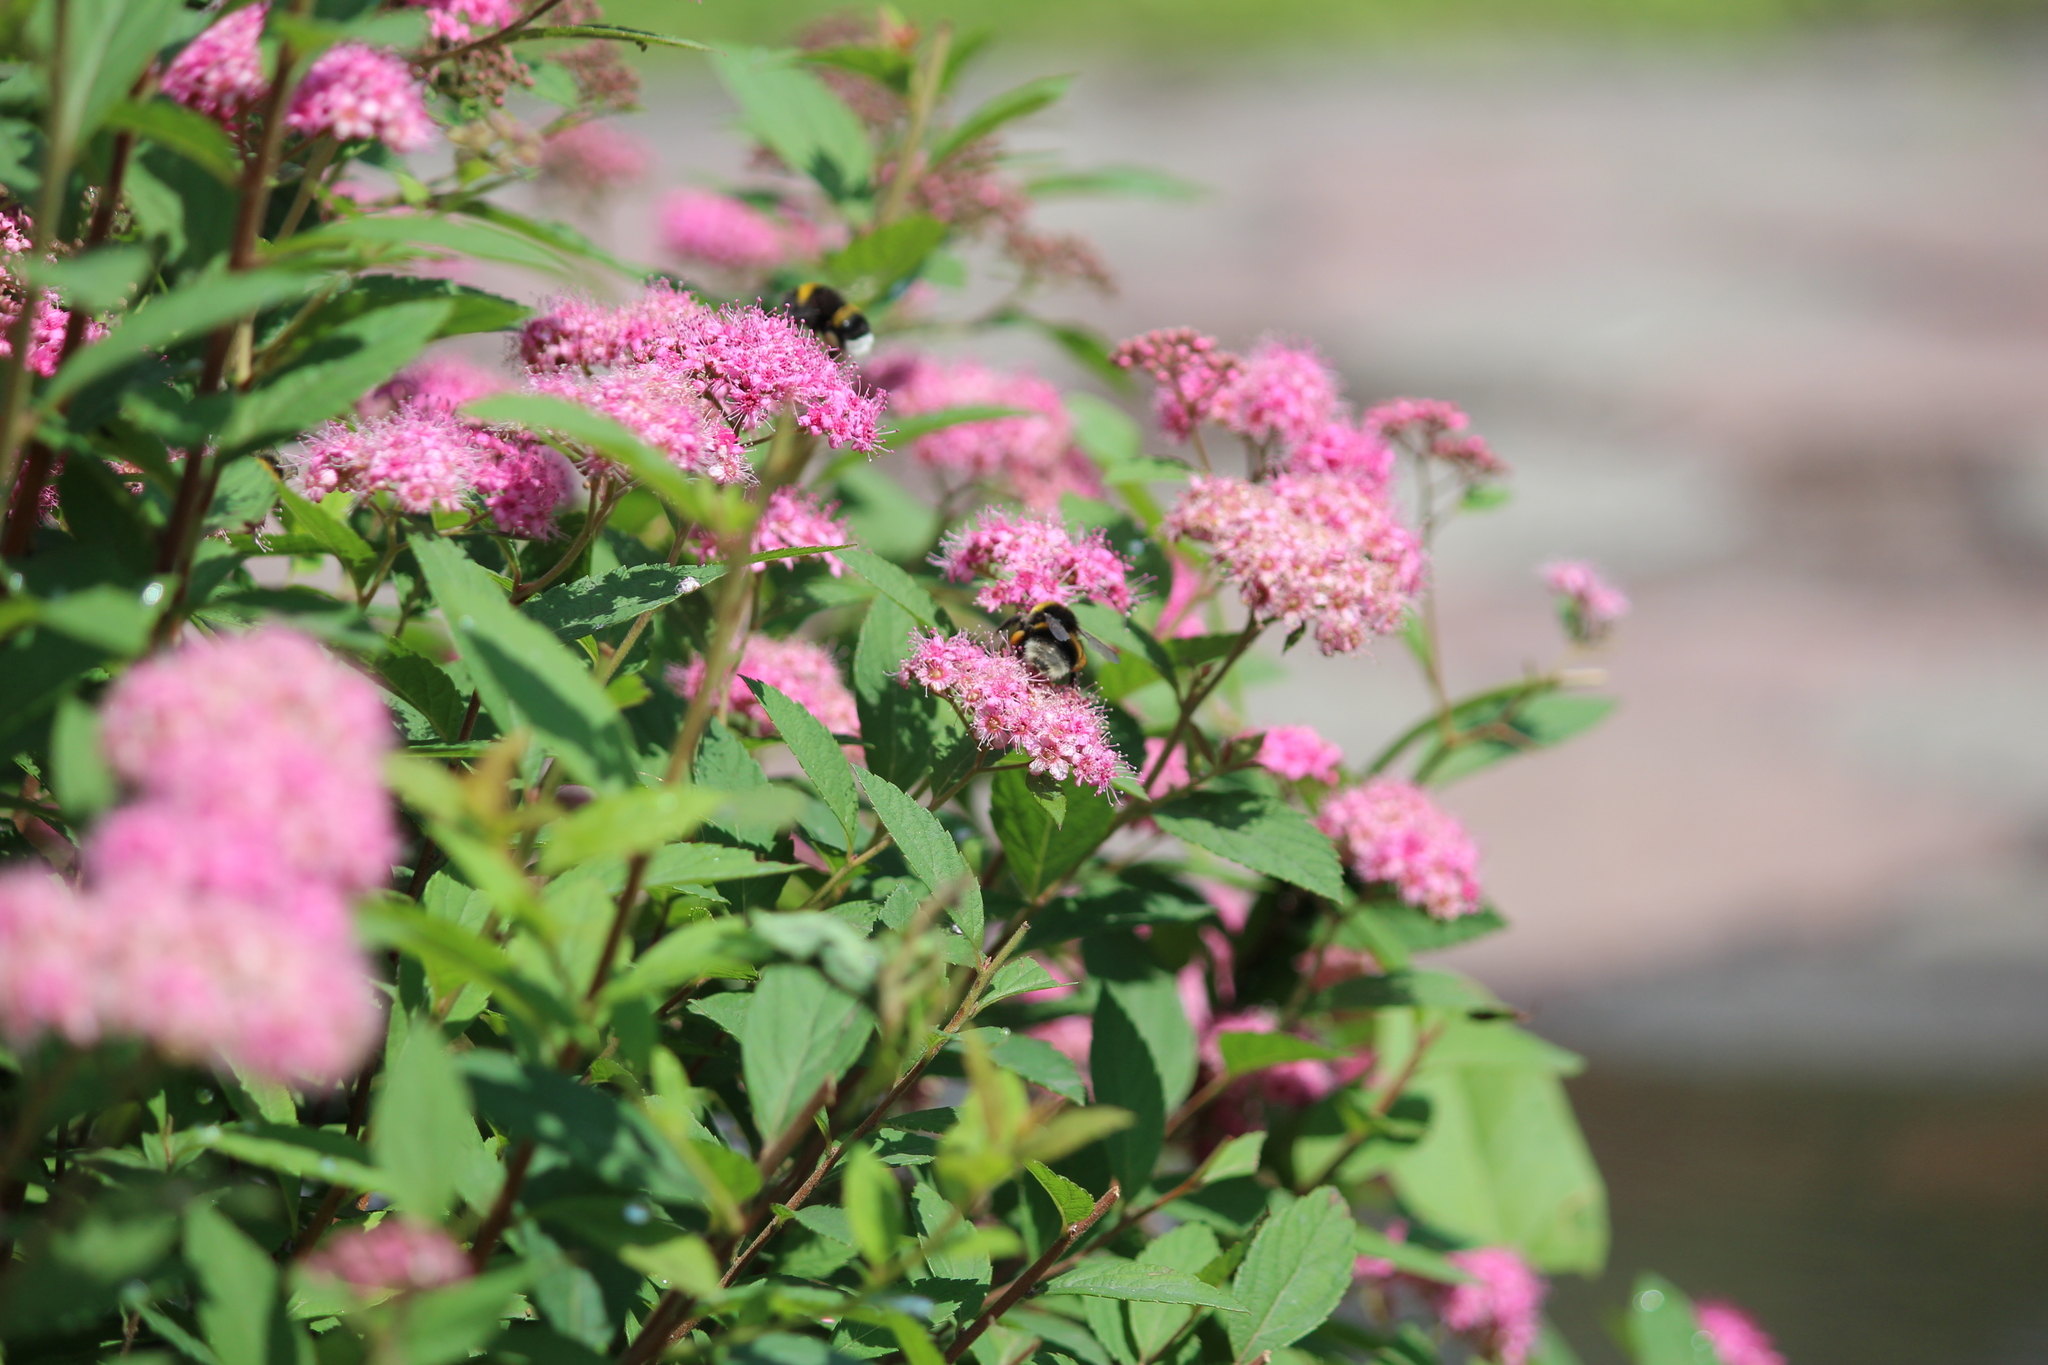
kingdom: Animalia
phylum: Arthropoda
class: Insecta
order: Hymenoptera
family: Apidae
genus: Bombus
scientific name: Bombus
